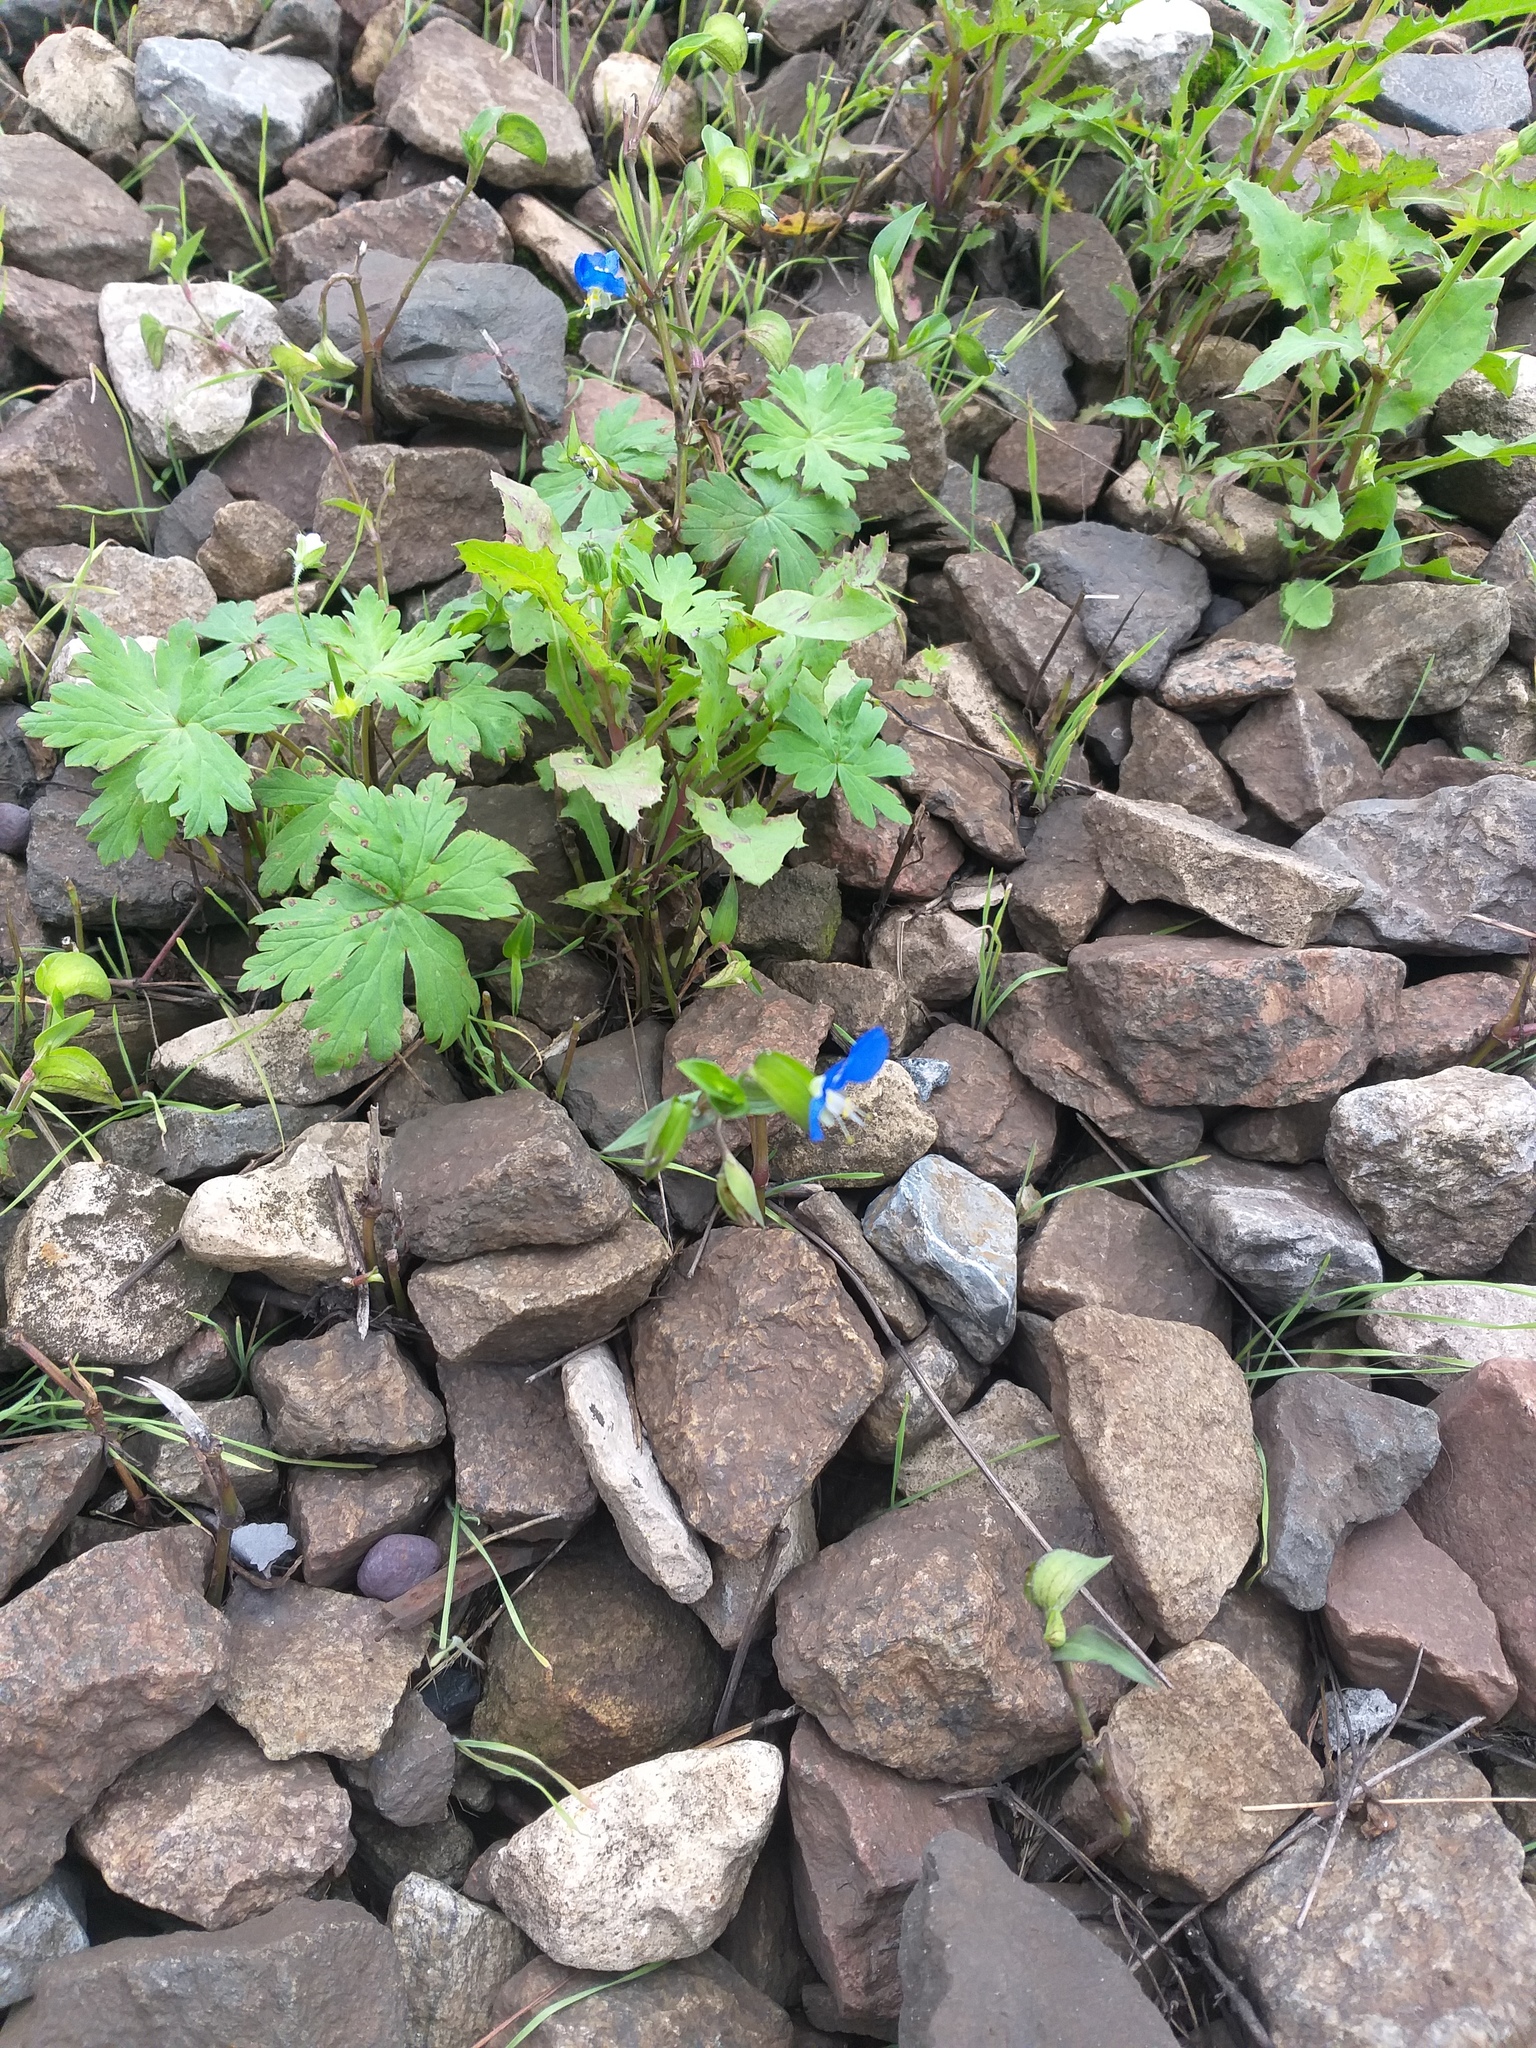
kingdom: Plantae
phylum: Tracheophyta
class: Liliopsida
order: Commelinales
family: Commelinaceae
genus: Commelina
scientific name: Commelina communis
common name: Asiatic dayflower
